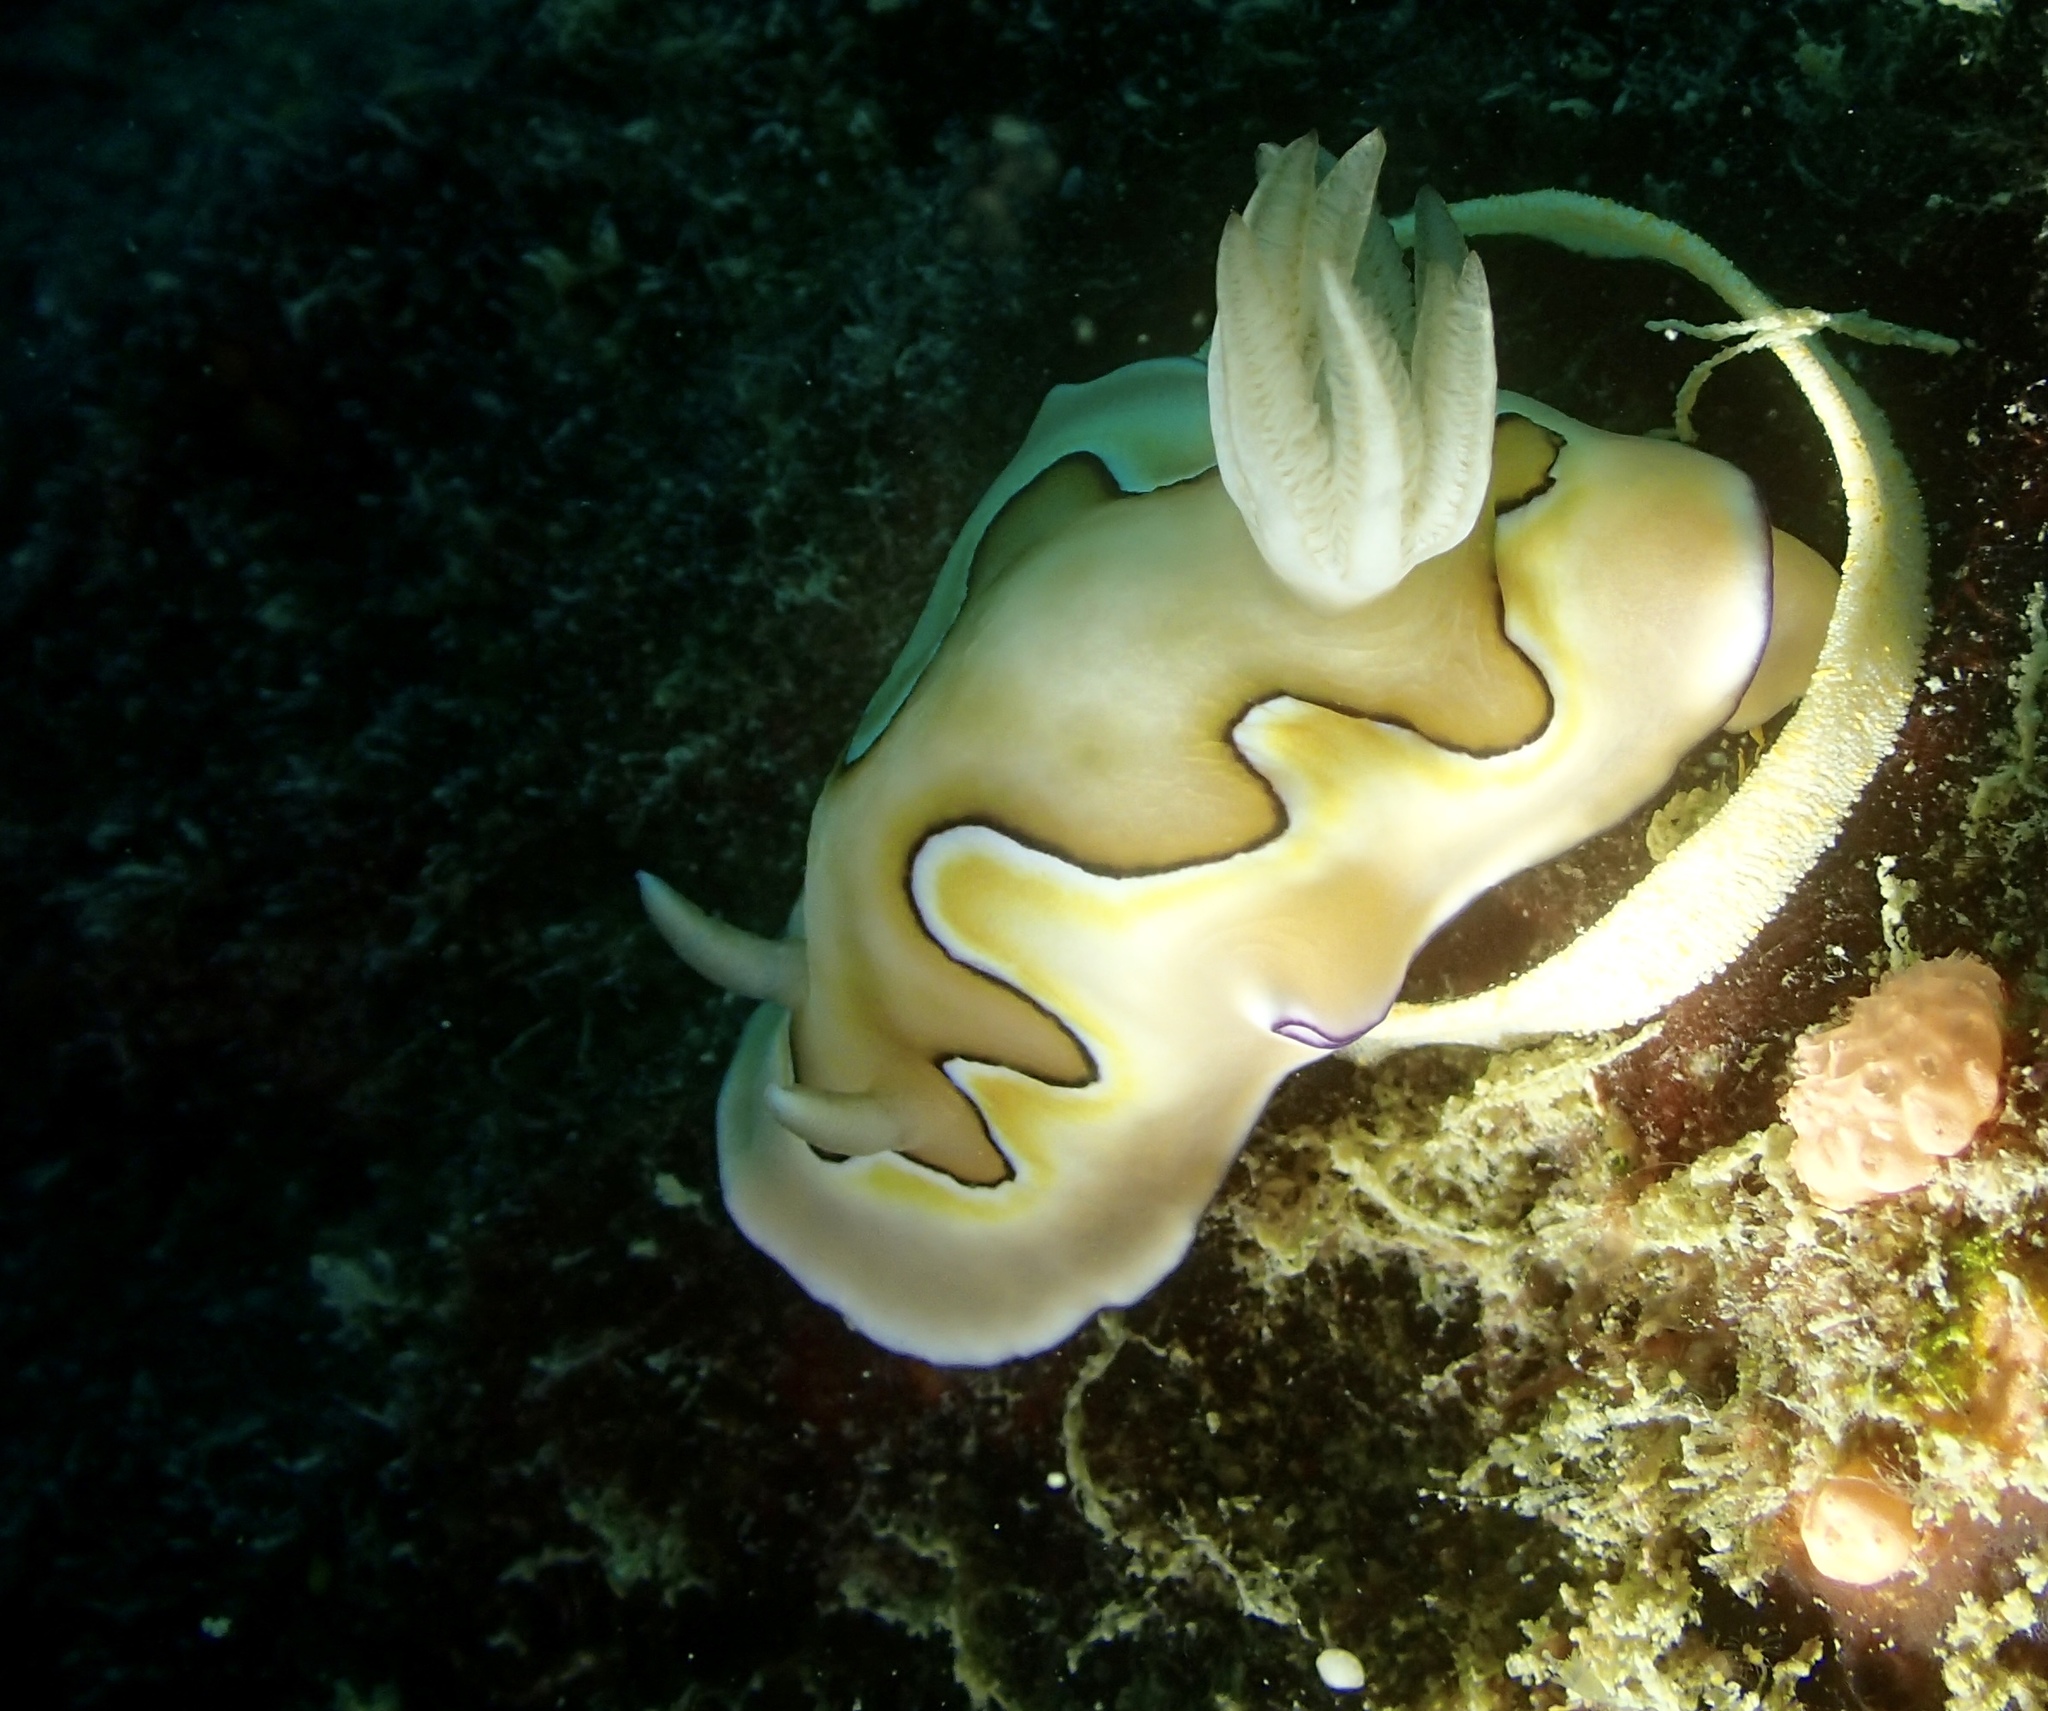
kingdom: Animalia
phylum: Mollusca
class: Gastropoda
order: Nudibranchia
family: Chromodorididae
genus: Goniobranchus
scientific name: Goniobranchus coi
